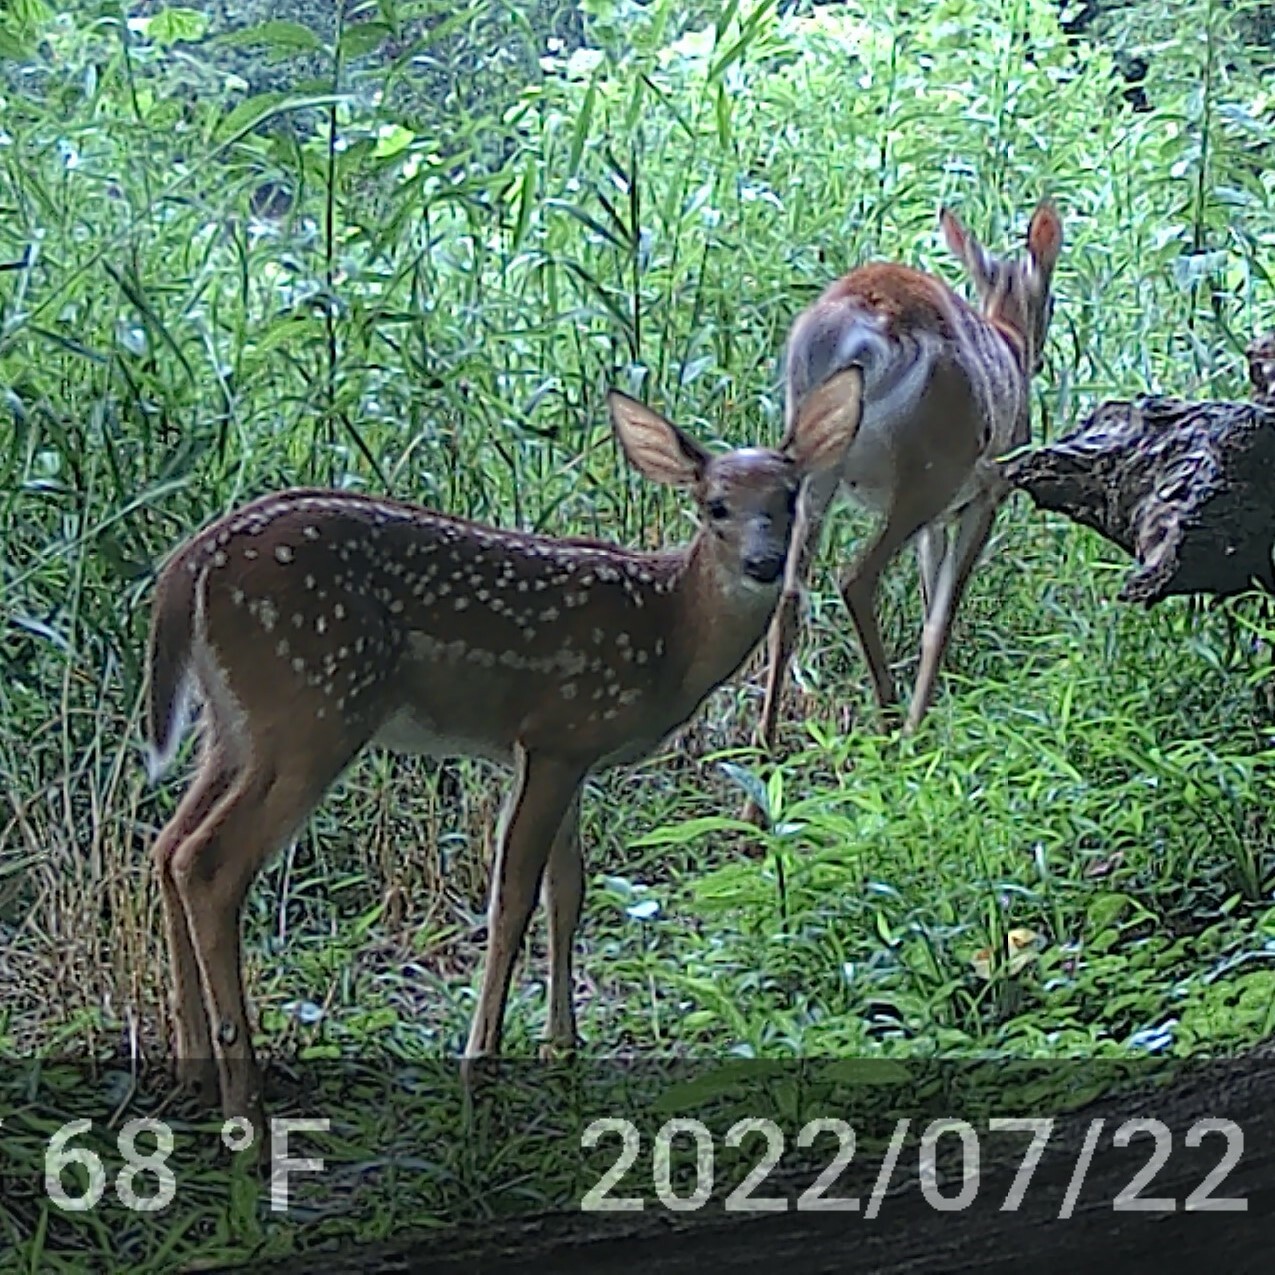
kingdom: Animalia
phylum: Chordata
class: Mammalia
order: Artiodactyla
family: Cervidae
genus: Odocoileus
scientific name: Odocoileus virginianus
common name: White-tailed deer
